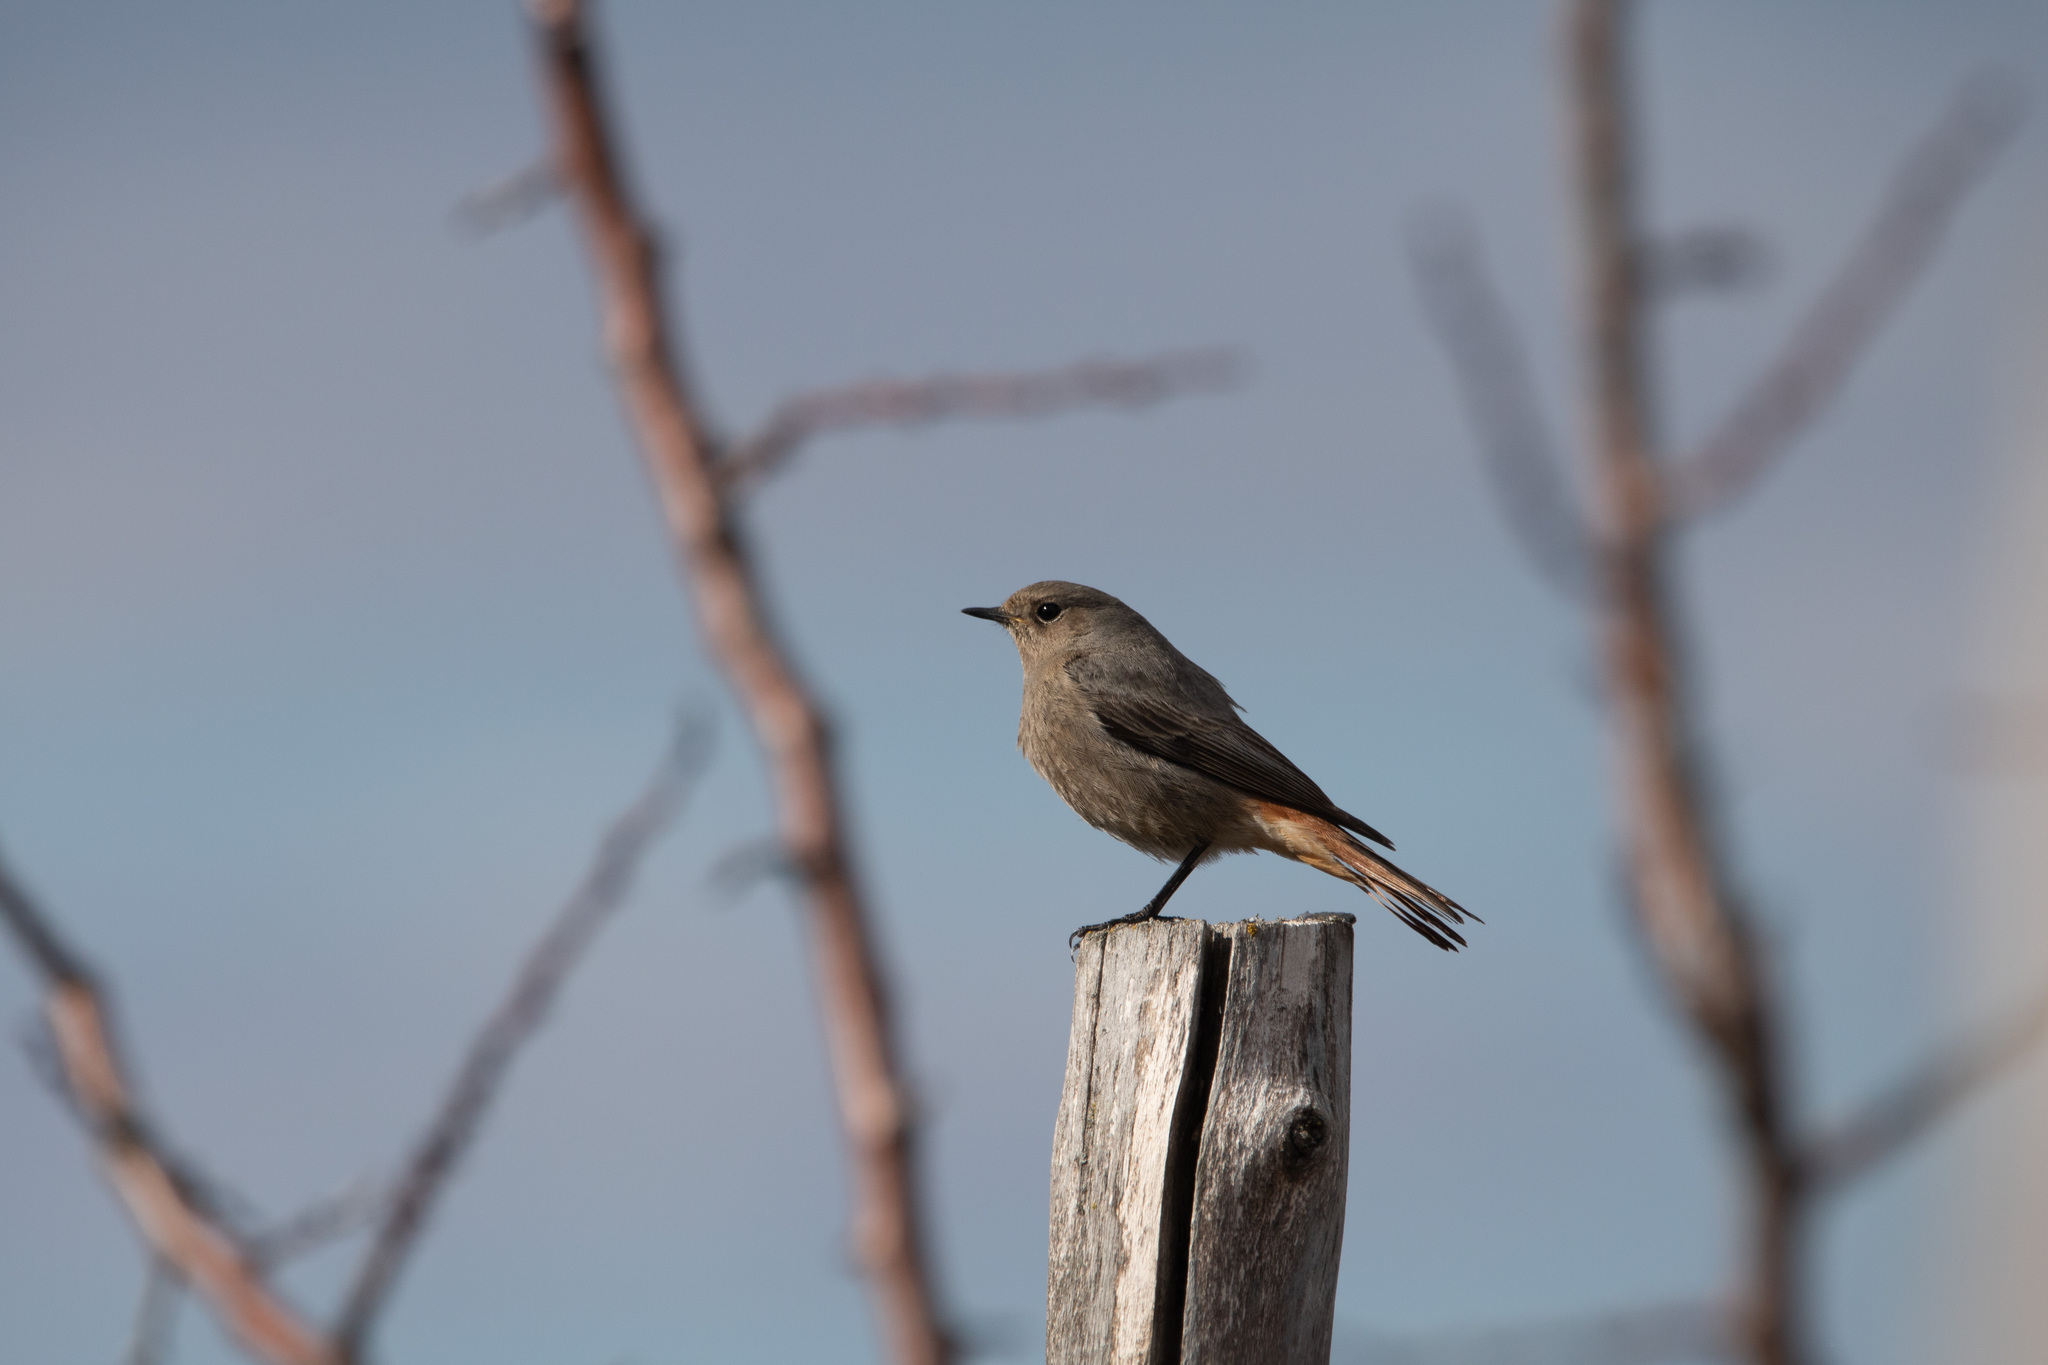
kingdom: Animalia
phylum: Chordata
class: Aves
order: Passeriformes
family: Muscicapidae
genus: Phoenicurus
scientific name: Phoenicurus ochruros
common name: Black redstart
